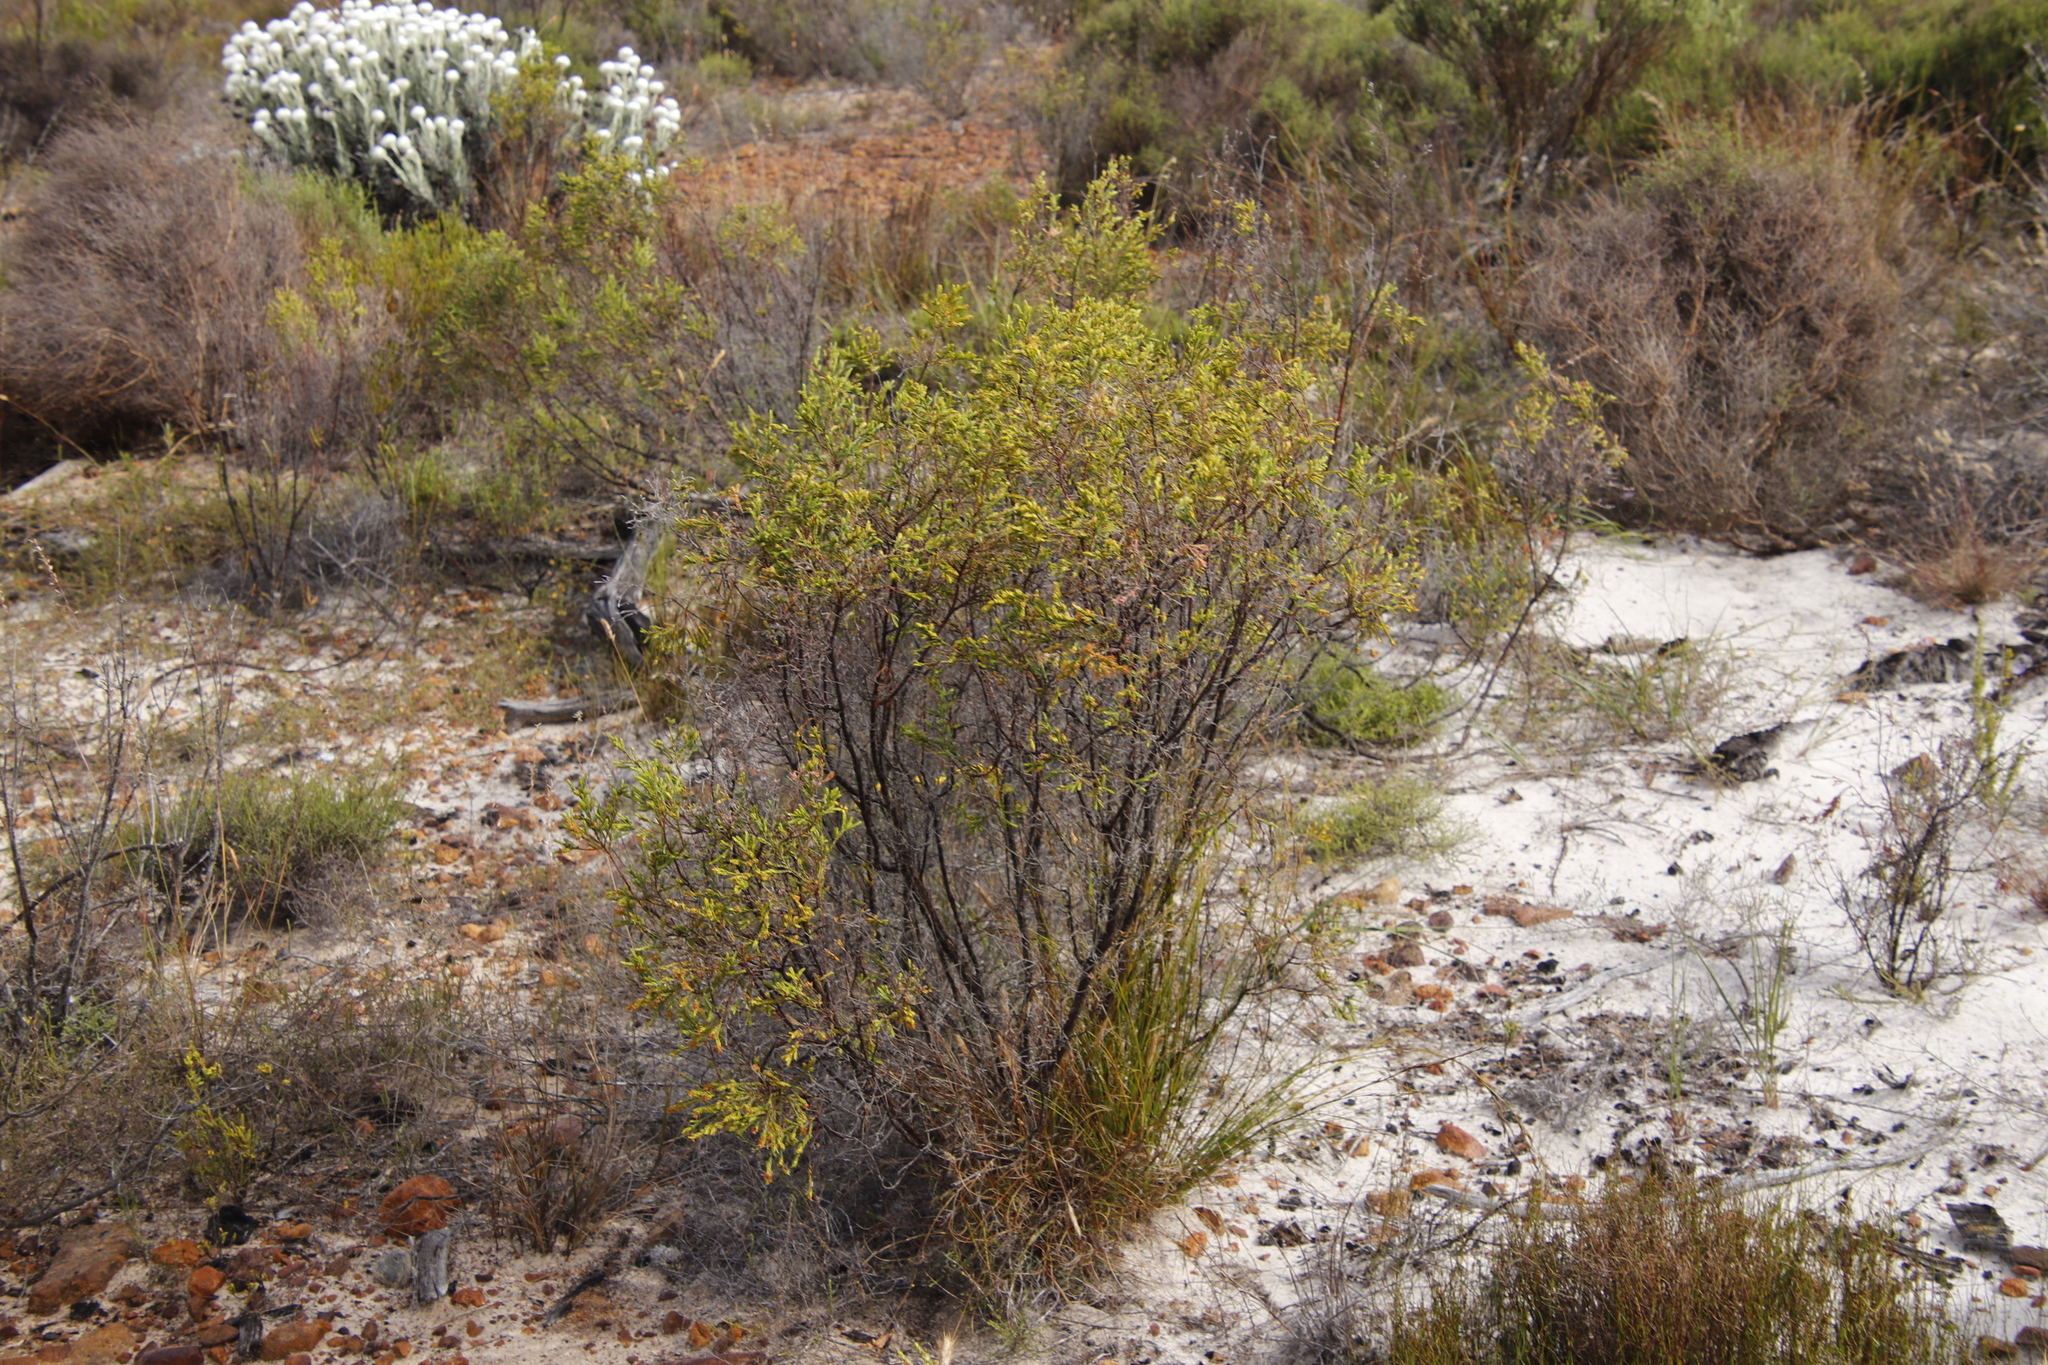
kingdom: Plantae
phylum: Tracheophyta
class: Magnoliopsida
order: Malvales
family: Thymelaeaceae
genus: Passerina
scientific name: Passerina corymbosa
